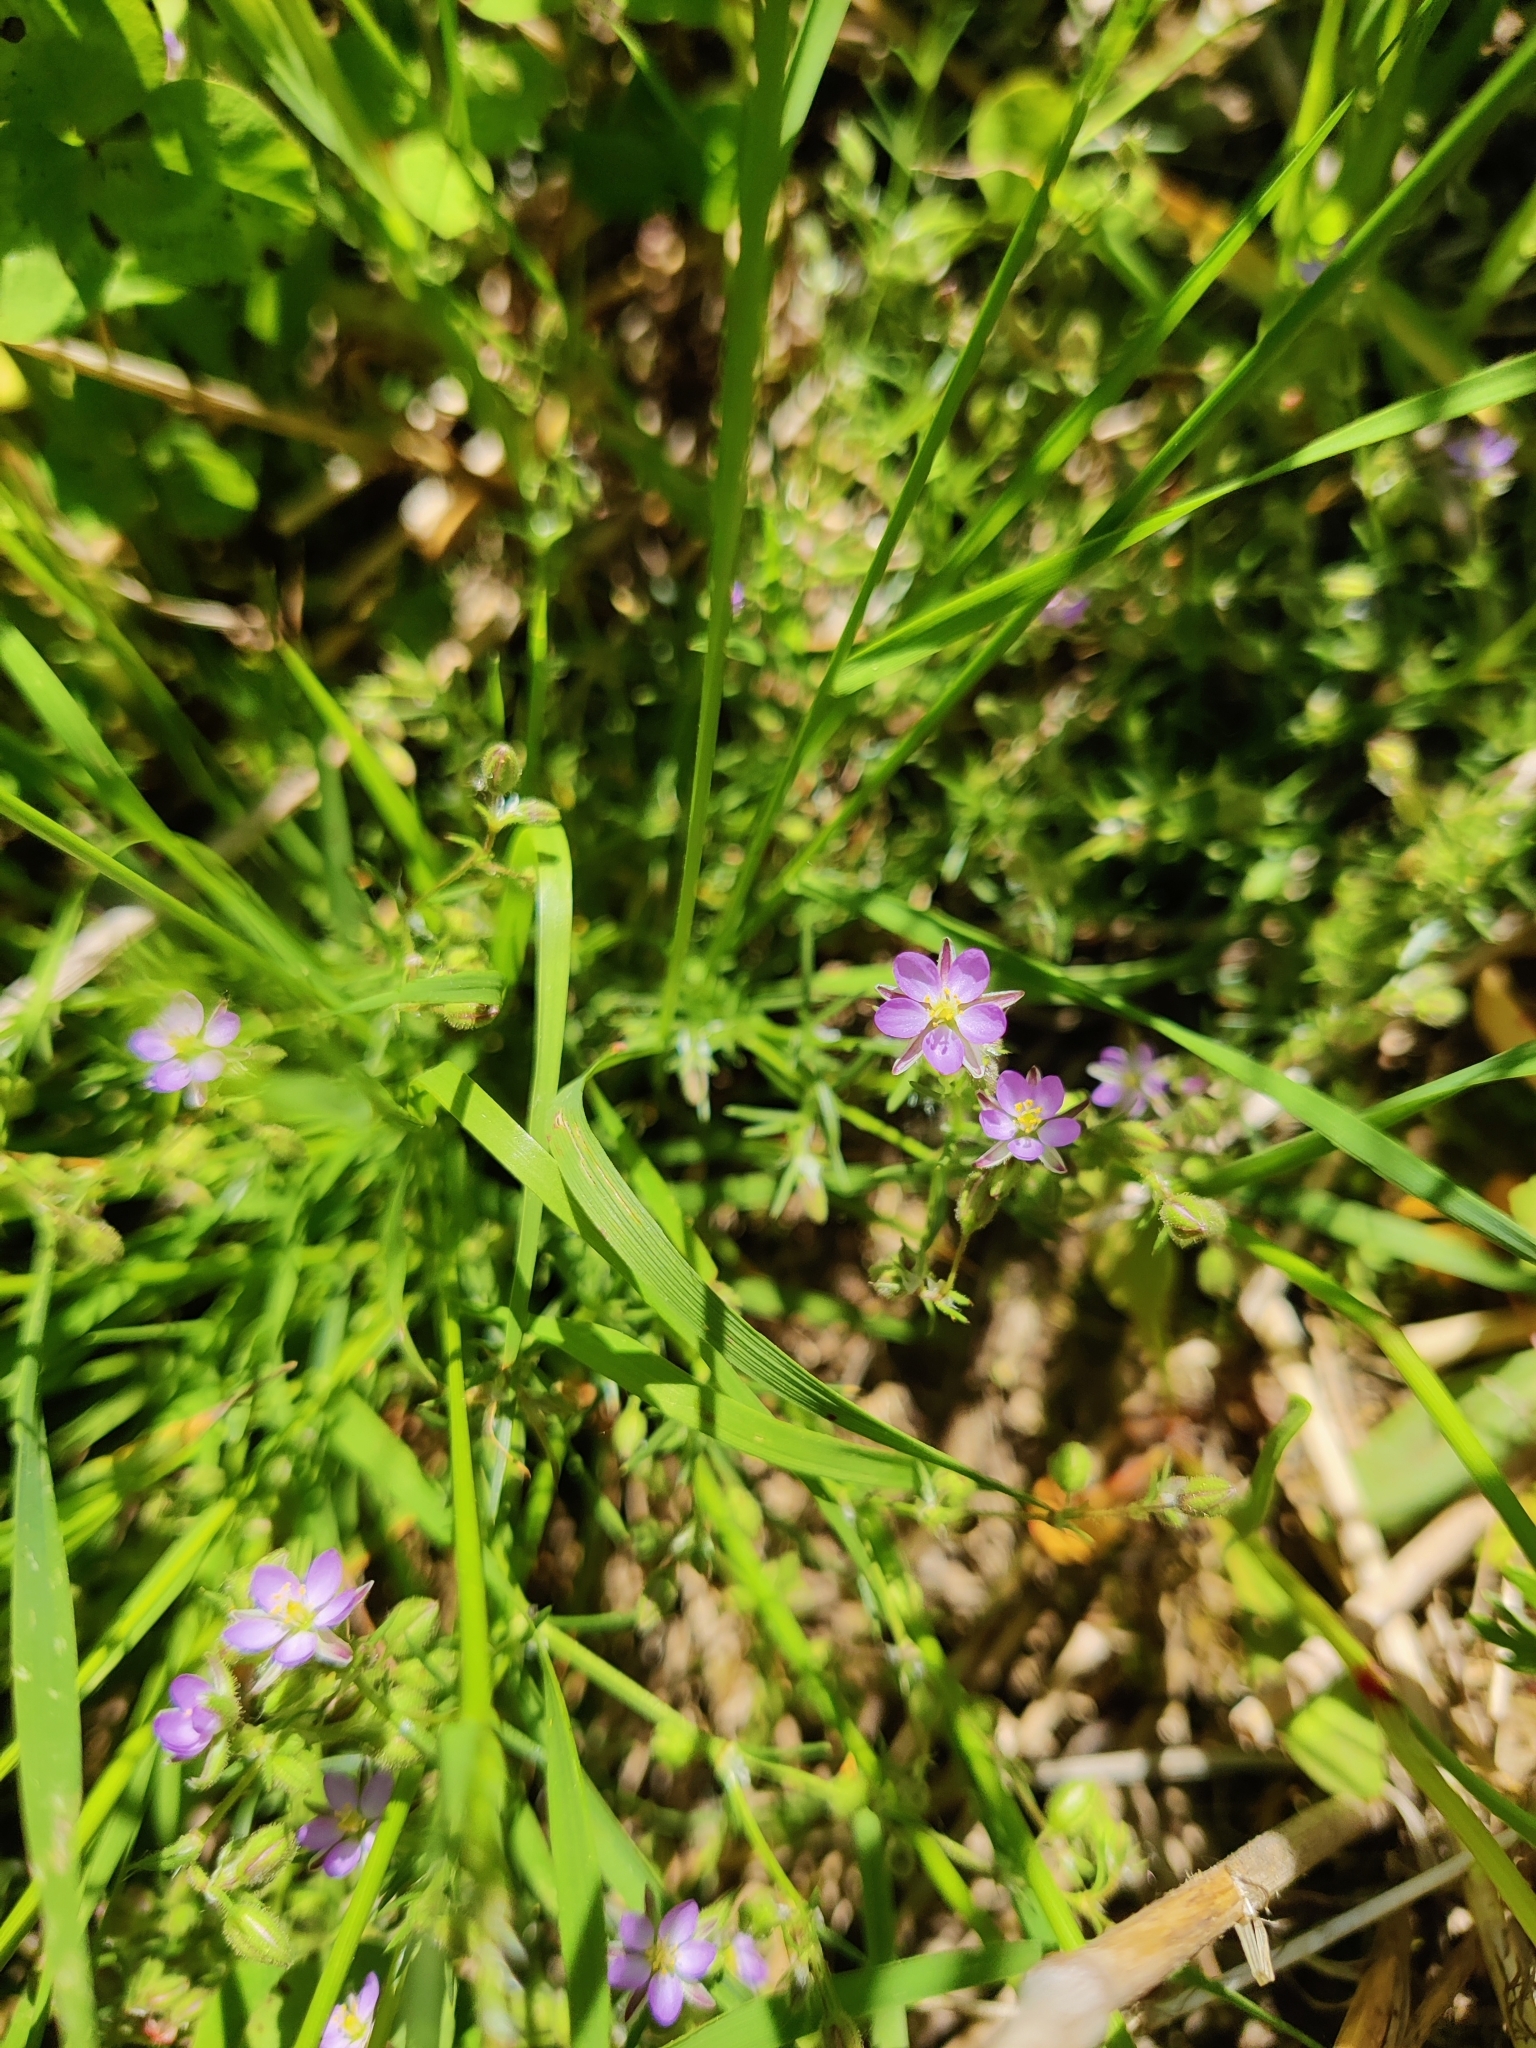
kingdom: Plantae
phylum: Tracheophyta
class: Magnoliopsida
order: Caryophyllales
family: Caryophyllaceae
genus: Spergularia
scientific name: Spergularia rubra
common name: Red sand-spurrey
